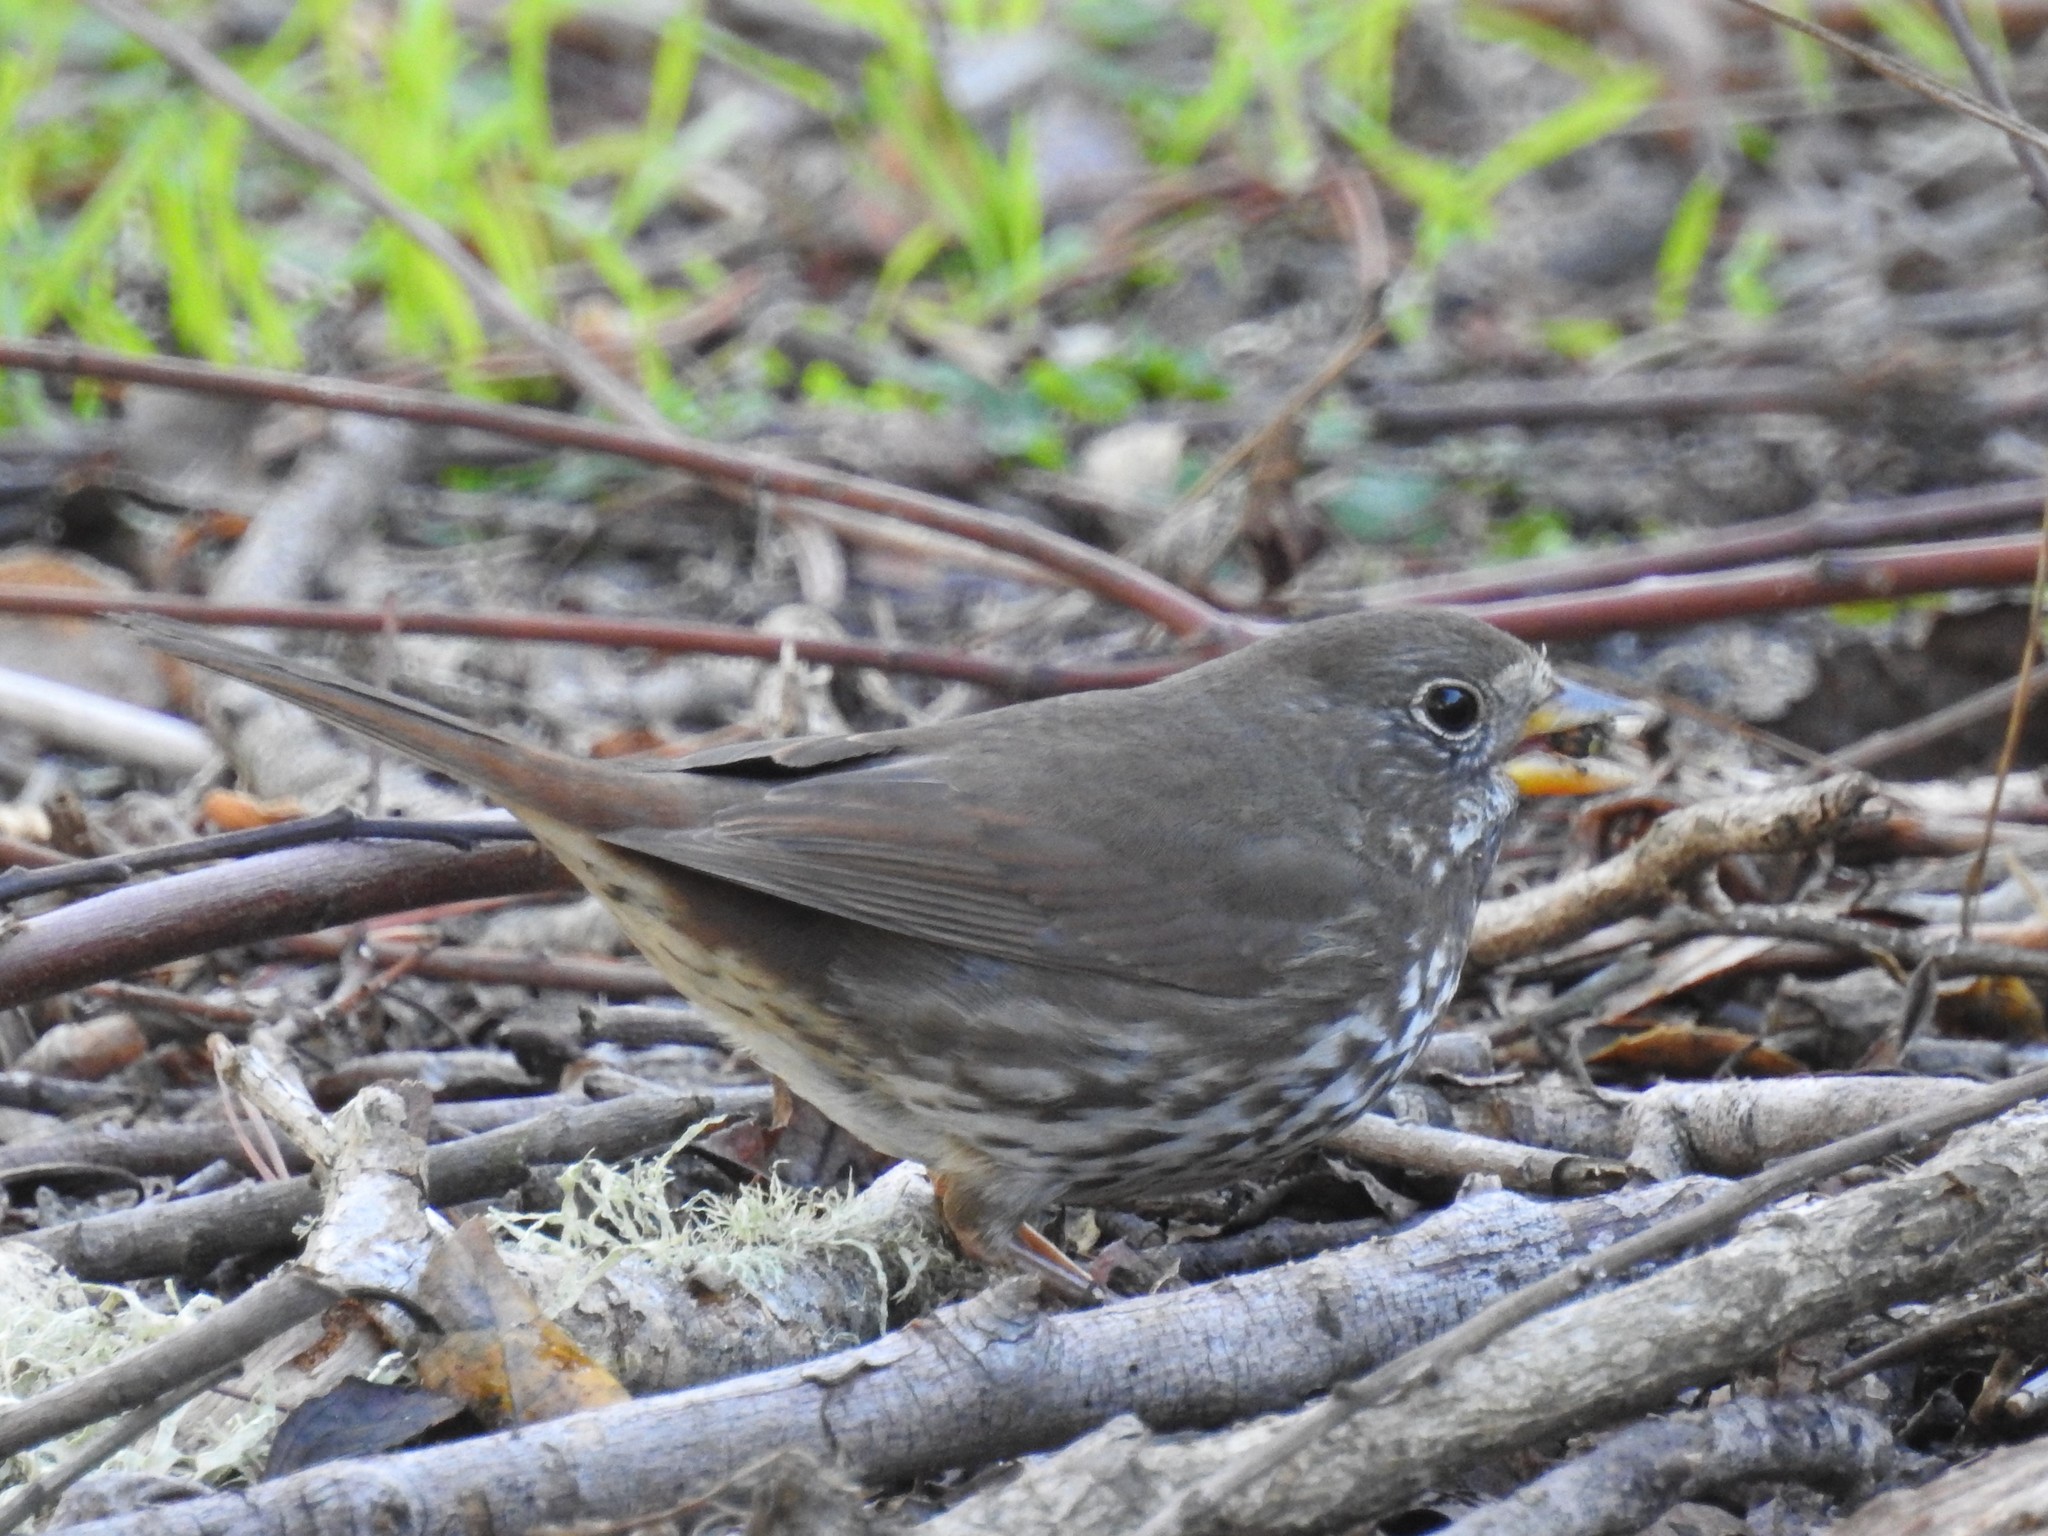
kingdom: Animalia
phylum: Chordata
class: Aves
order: Passeriformes
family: Passerellidae
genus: Passerella
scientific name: Passerella iliaca
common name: Fox sparrow
